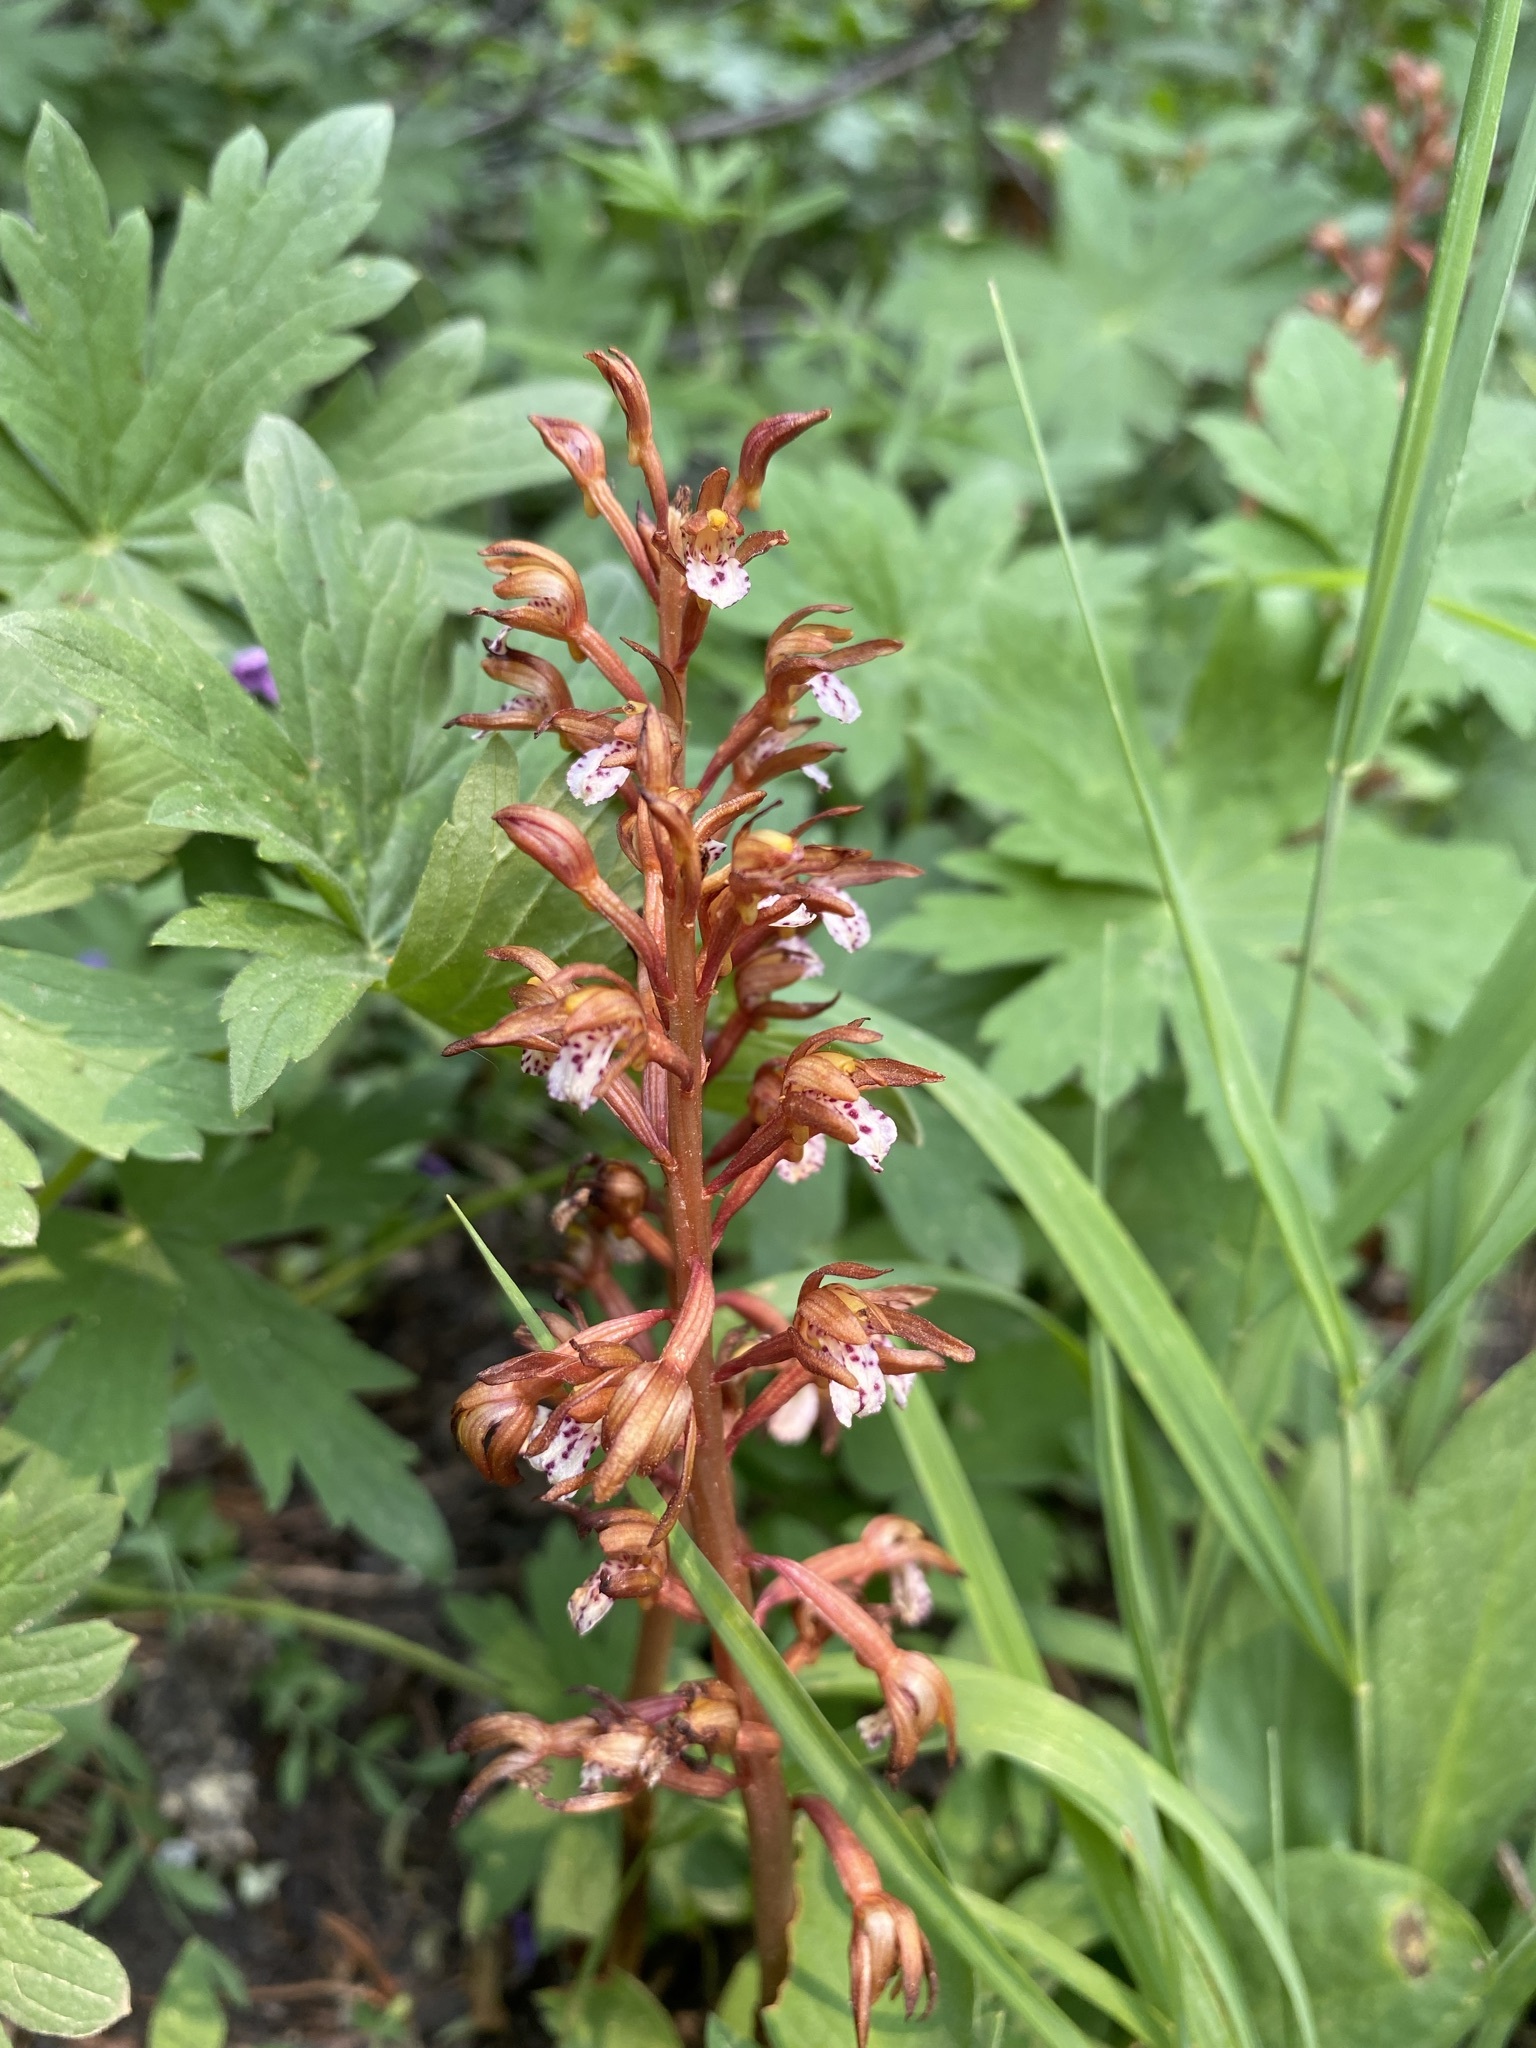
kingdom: Plantae
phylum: Tracheophyta
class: Liliopsida
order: Asparagales
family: Orchidaceae
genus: Corallorhiza
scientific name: Corallorhiza maculata
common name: Spotted coralroot
